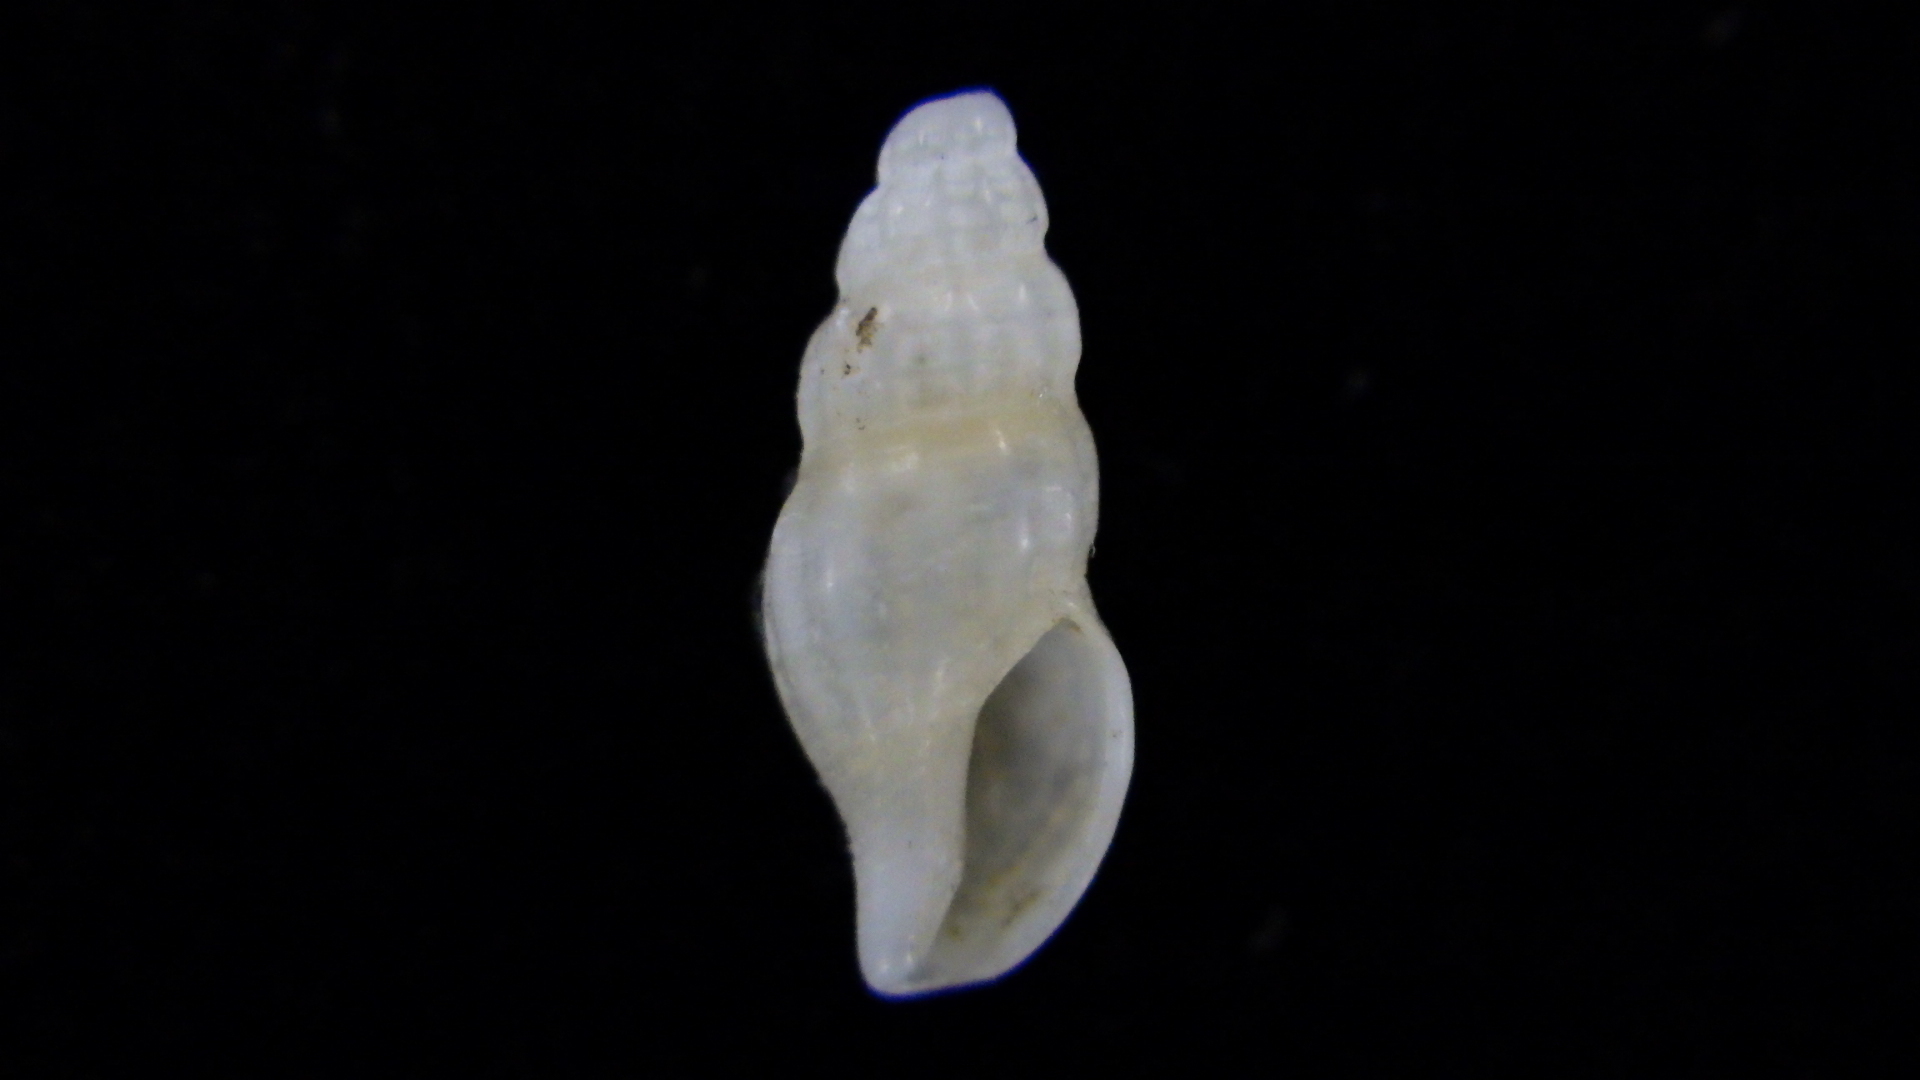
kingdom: Animalia
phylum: Mollusca
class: Gastropoda
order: Neogastropoda
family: Mangeliidae
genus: Neoguraleus
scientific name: Neoguraleus amoenus
